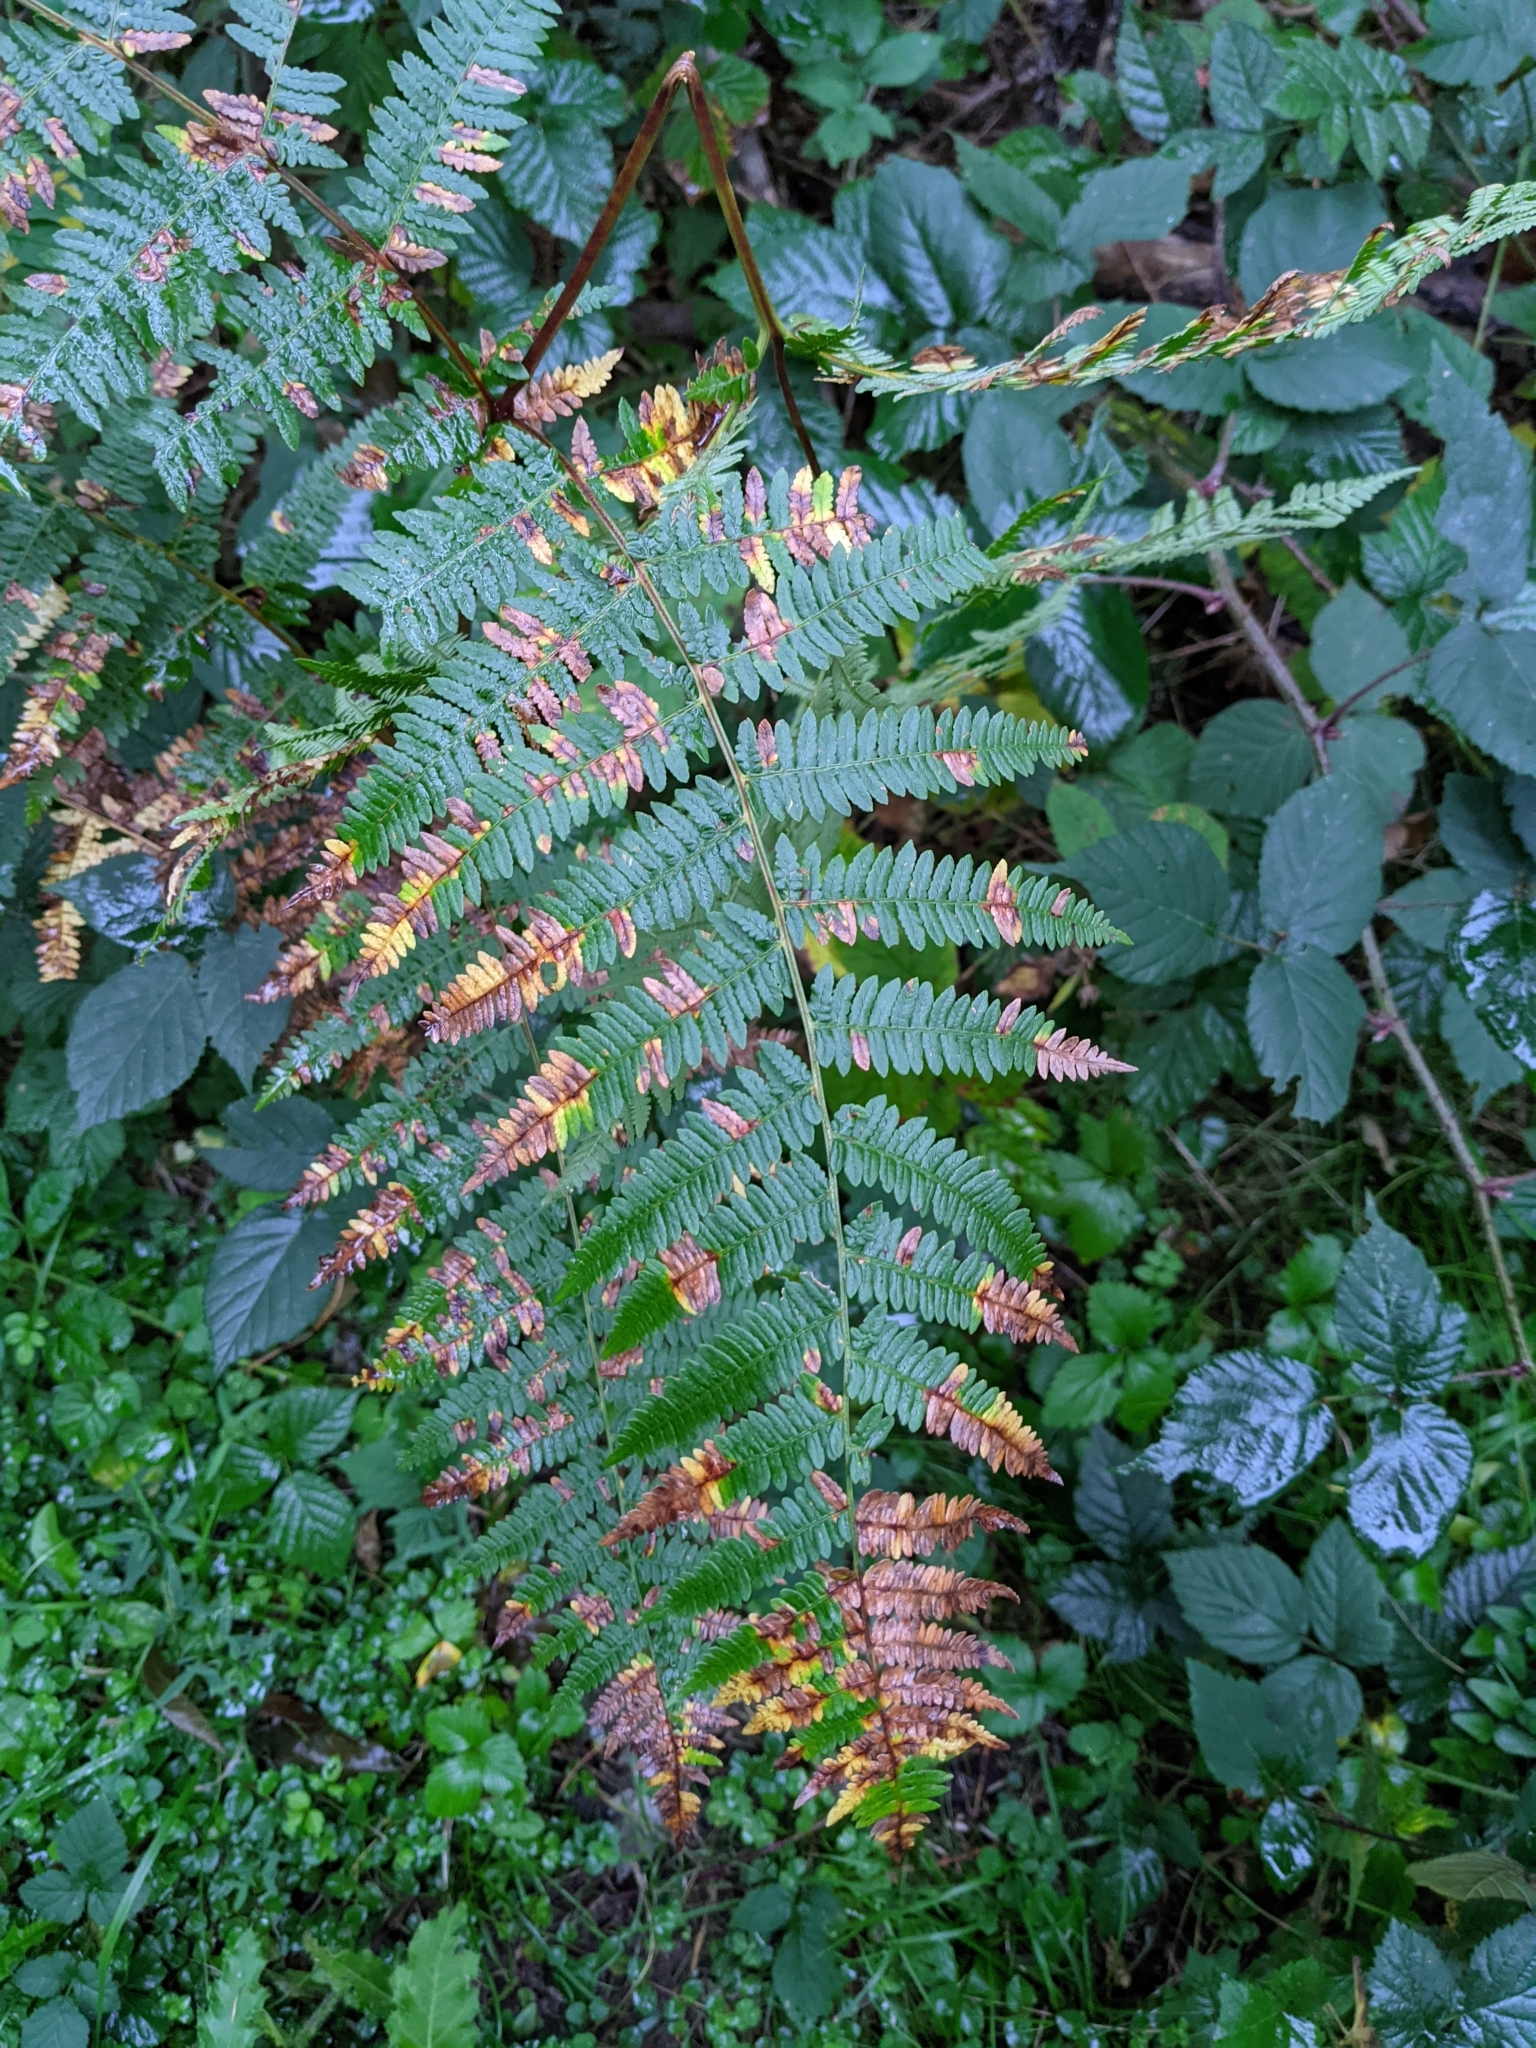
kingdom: Plantae
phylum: Tracheophyta
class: Polypodiopsida
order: Polypodiales
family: Dennstaedtiaceae
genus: Pteridium
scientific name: Pteridium aquilinum
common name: Bracken
